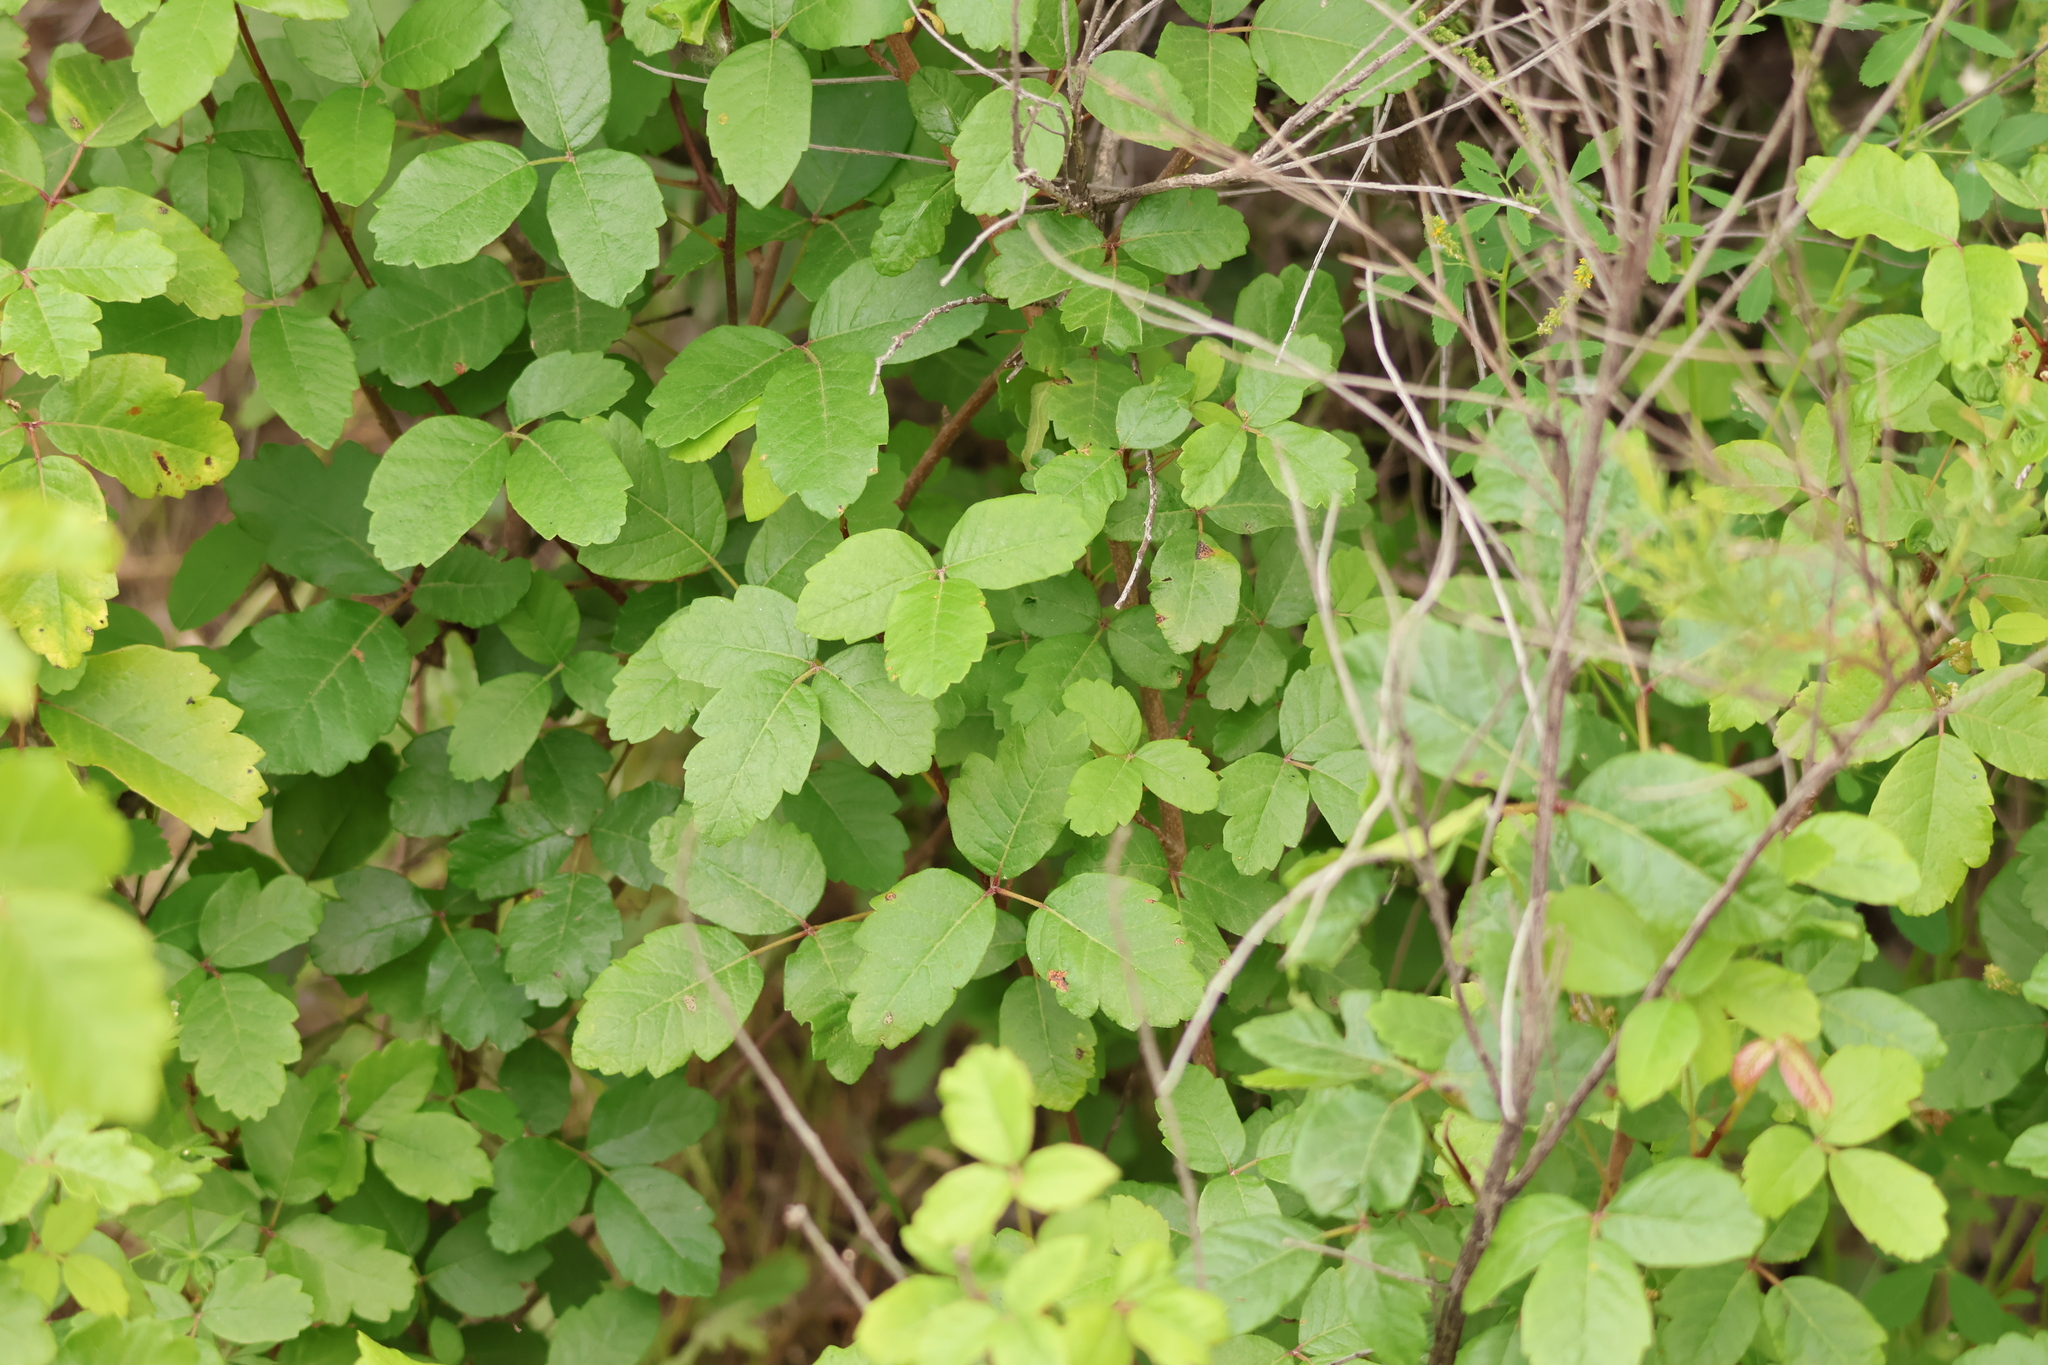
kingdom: Plantae
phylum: Tracheophyta
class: Magnoliopsida
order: Sapindales
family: Anacardiaceae
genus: Toxicodendron
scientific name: Toxicodendron diversilobum
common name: Pacific poison-oak
